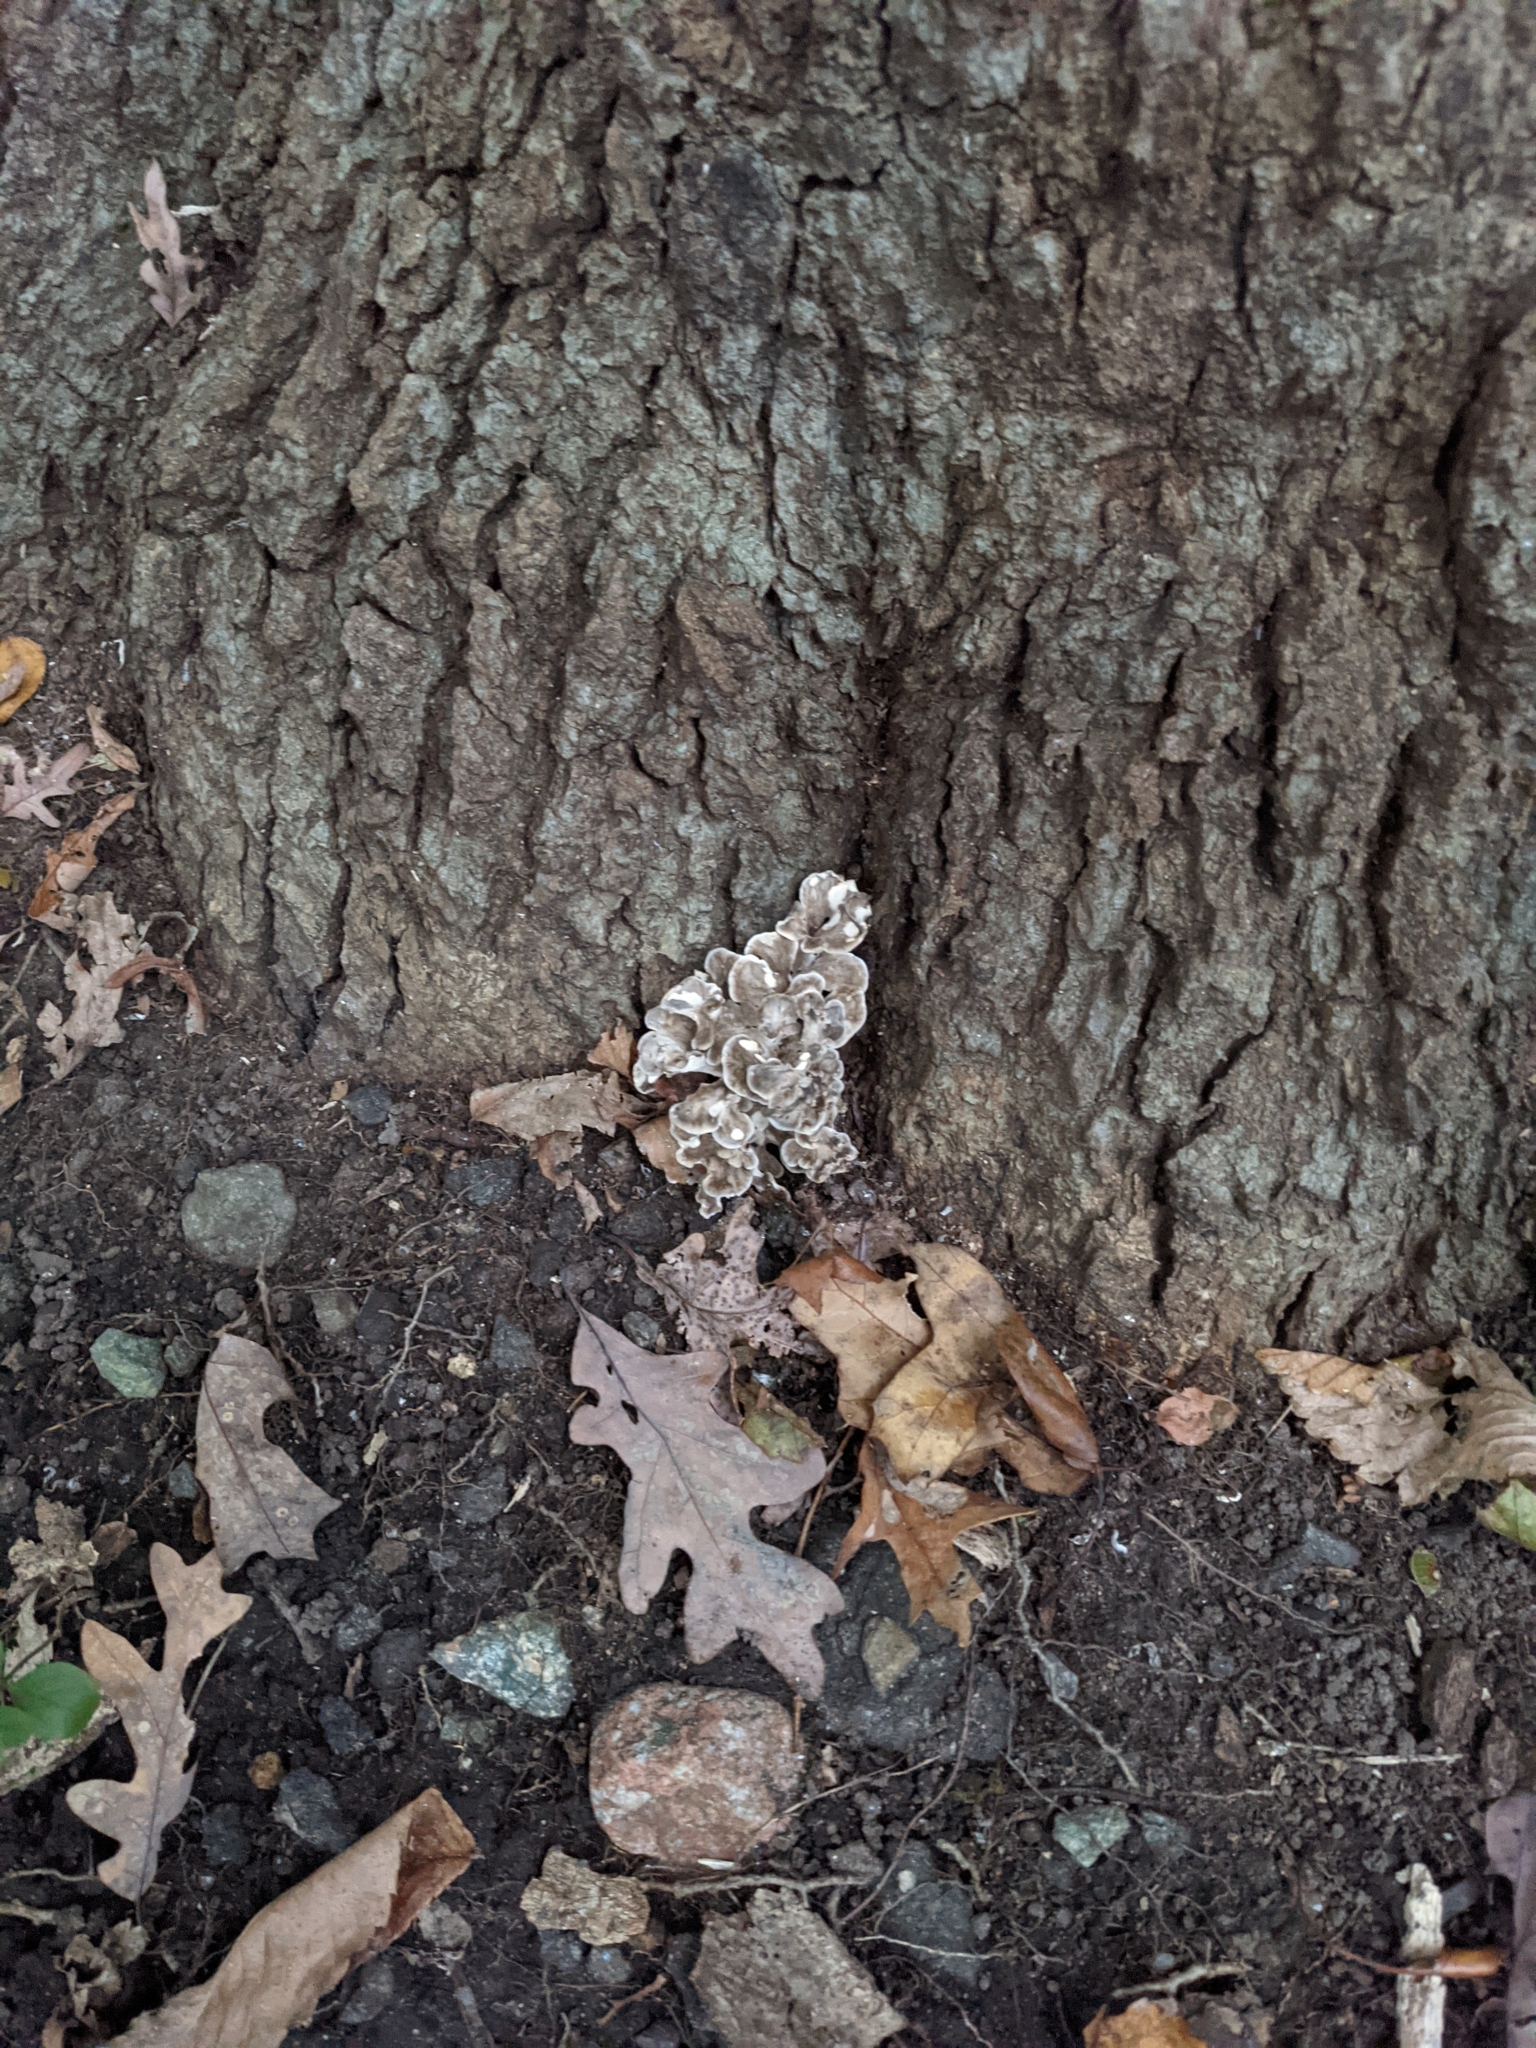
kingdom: Fungi
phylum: Basidiomycota
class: Agaricomycetes
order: Polyporales
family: Grifolaceae
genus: Grifola
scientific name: Grifola frondosa
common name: Hen of the woods
